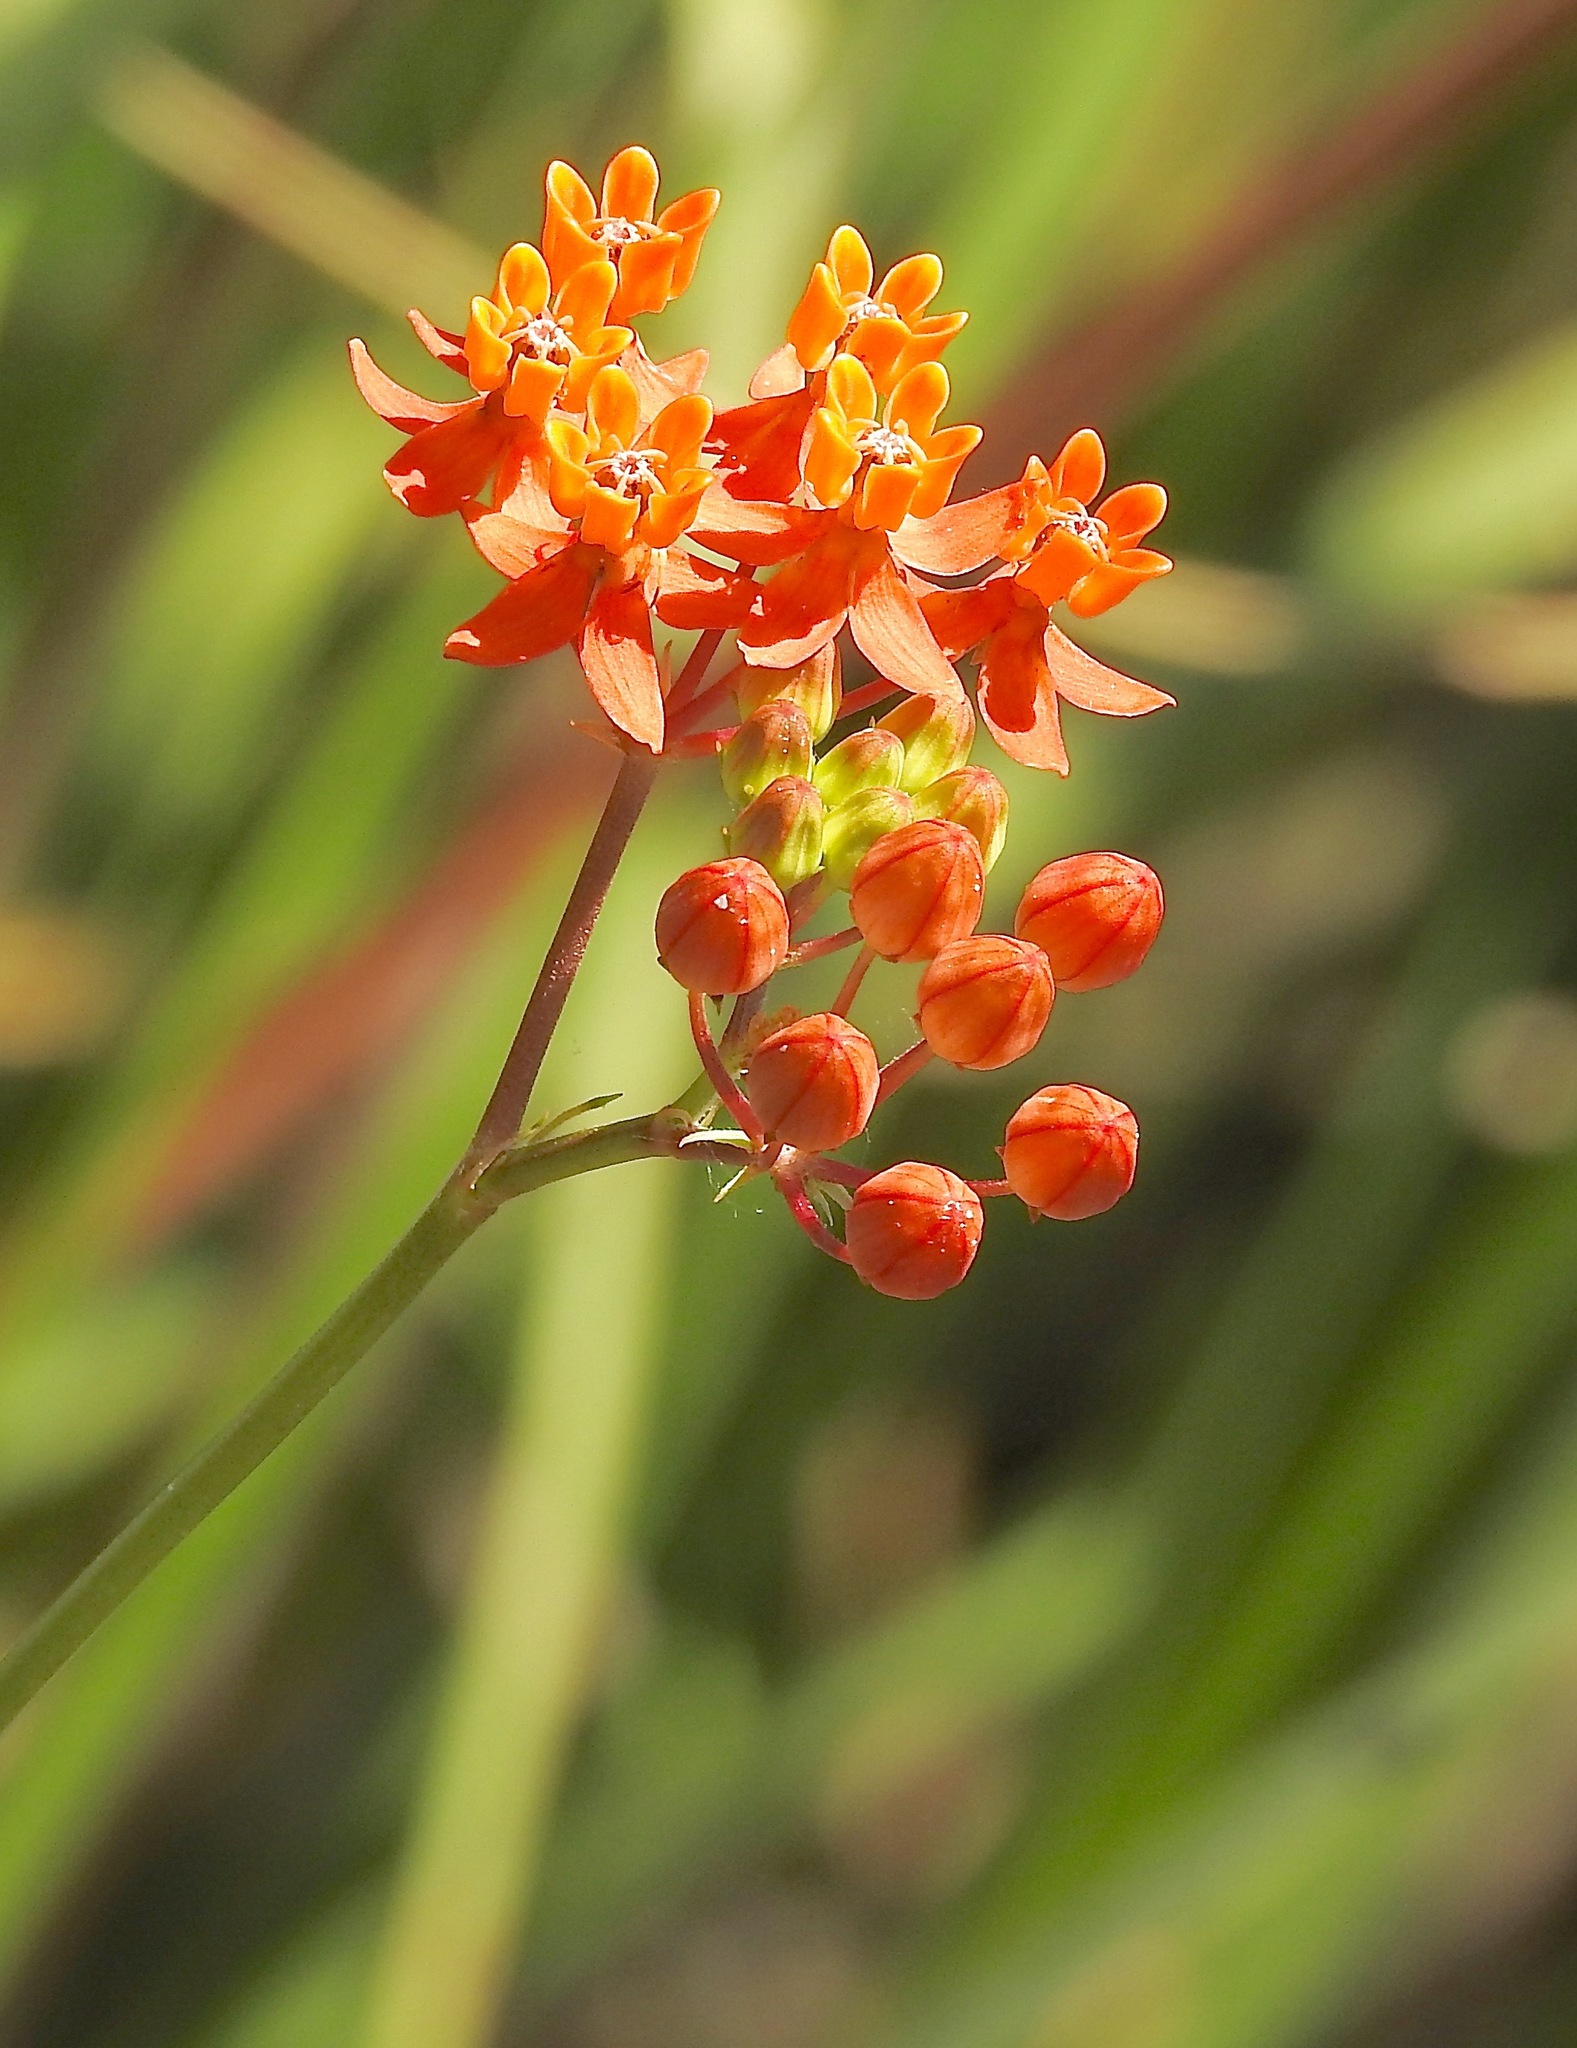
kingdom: Plantae
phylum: Tracheophyta
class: Magnoliopsida
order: Gentianales
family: Apocynaceae
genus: Asclepias
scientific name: Asclepias lanceolata
